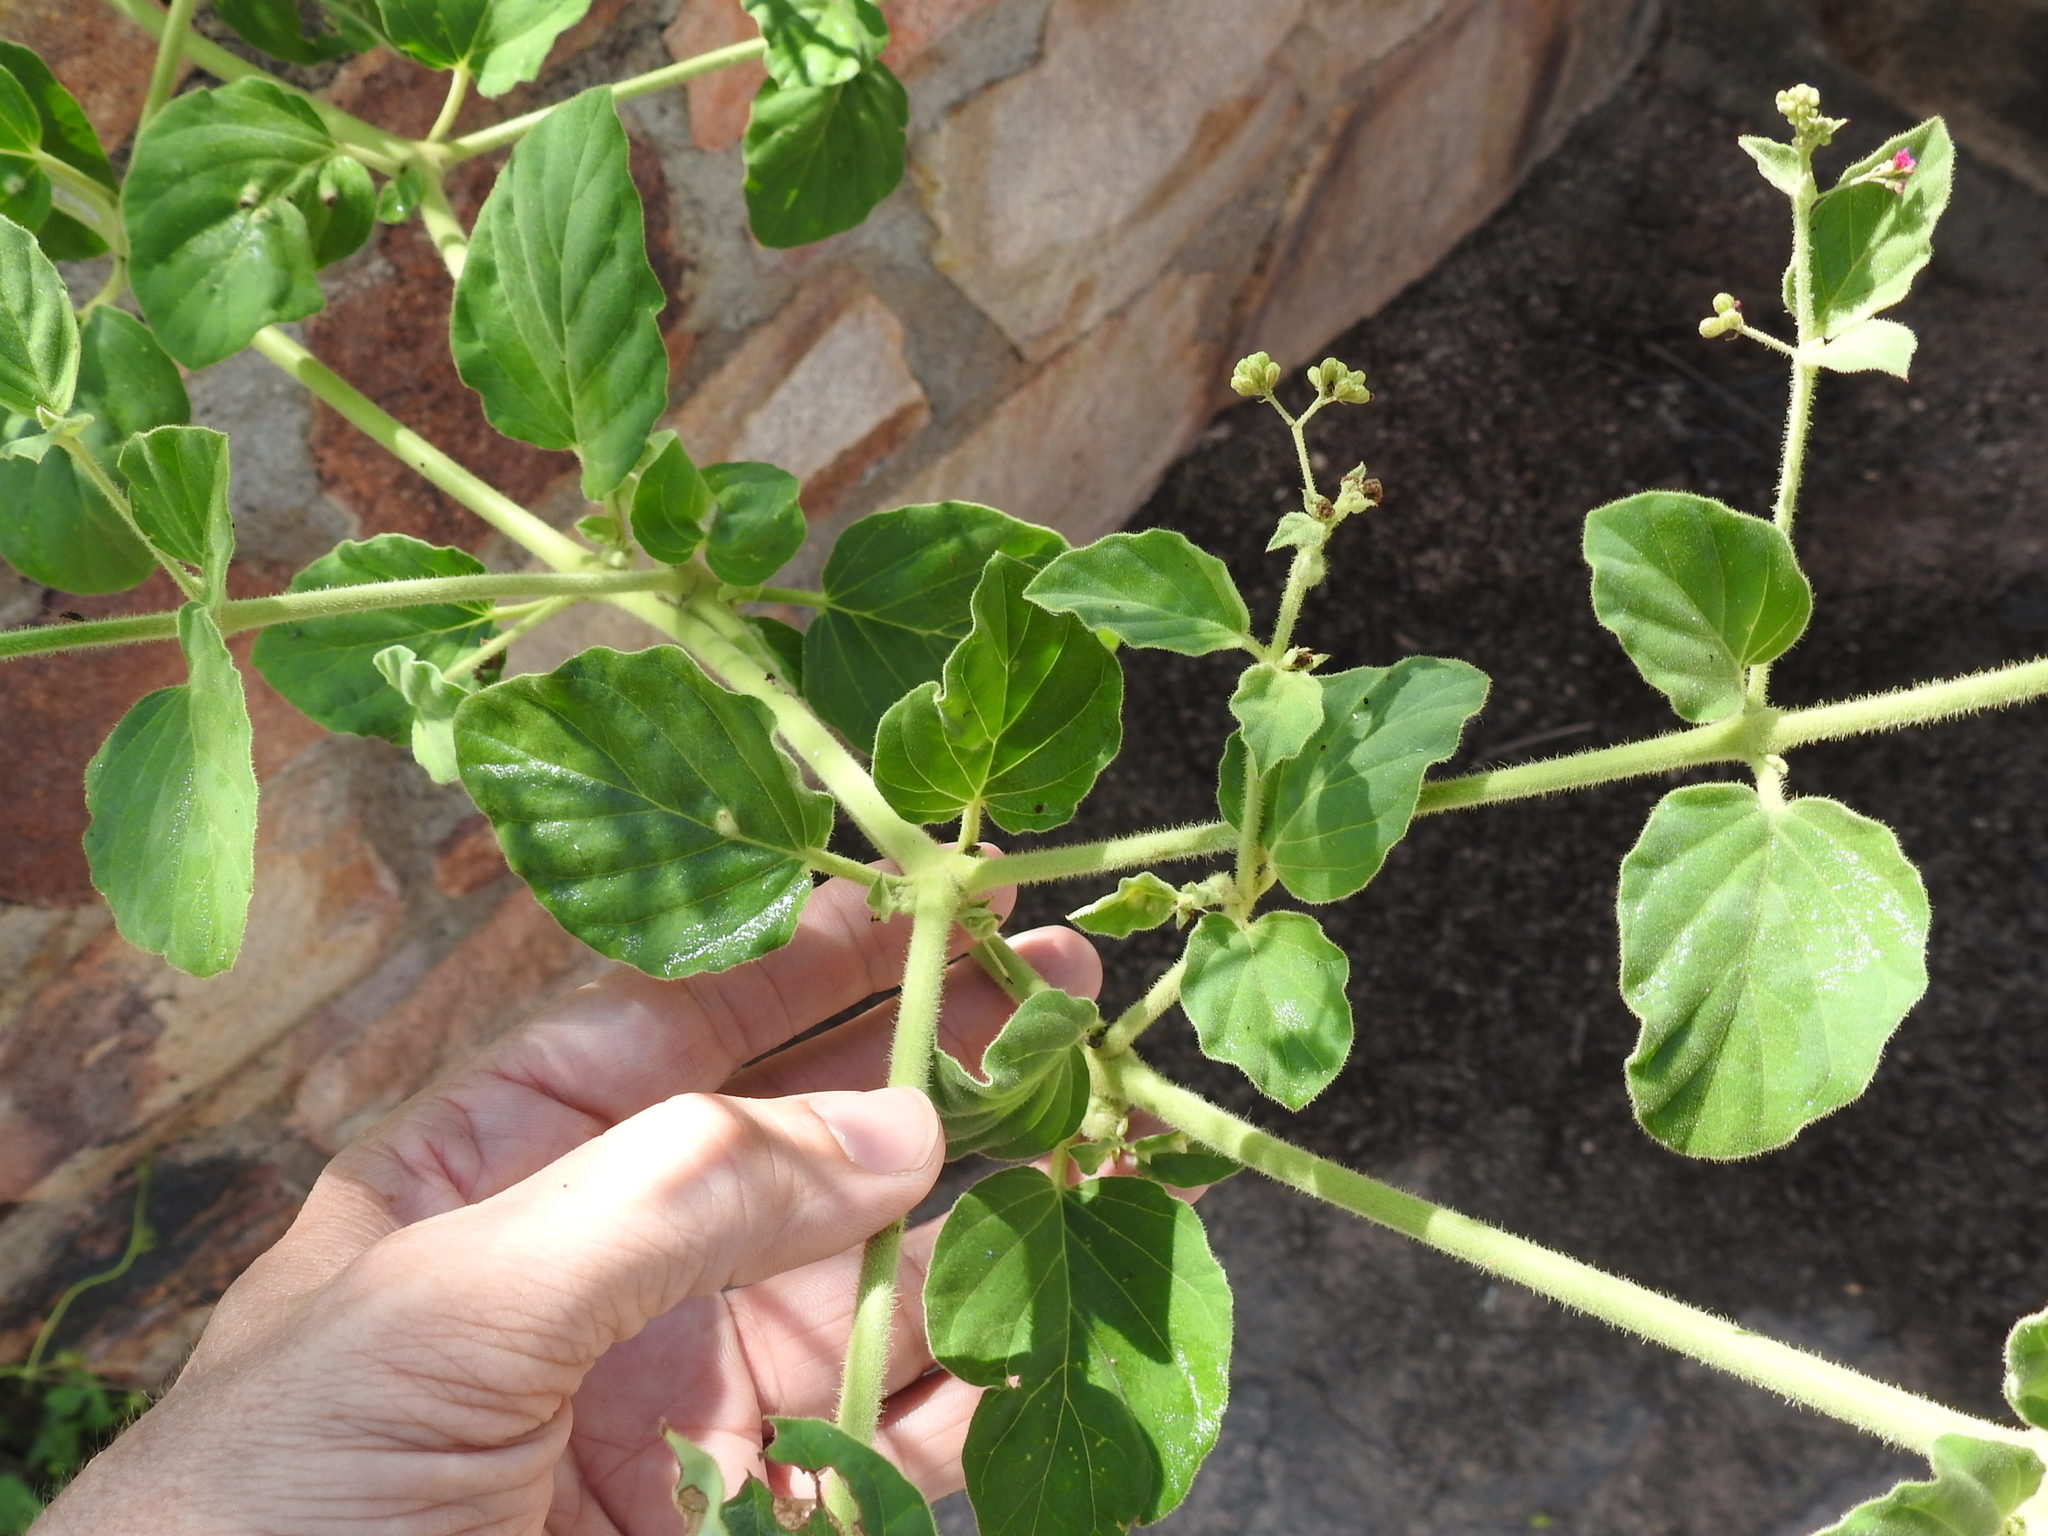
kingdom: Plantae
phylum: Tracheophyta
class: Magnoliopsida
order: Caryophyllales
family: Nyctaginaceae
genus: Boerhavia
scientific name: Boerhavia coccinea
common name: Scarlet spiderling
